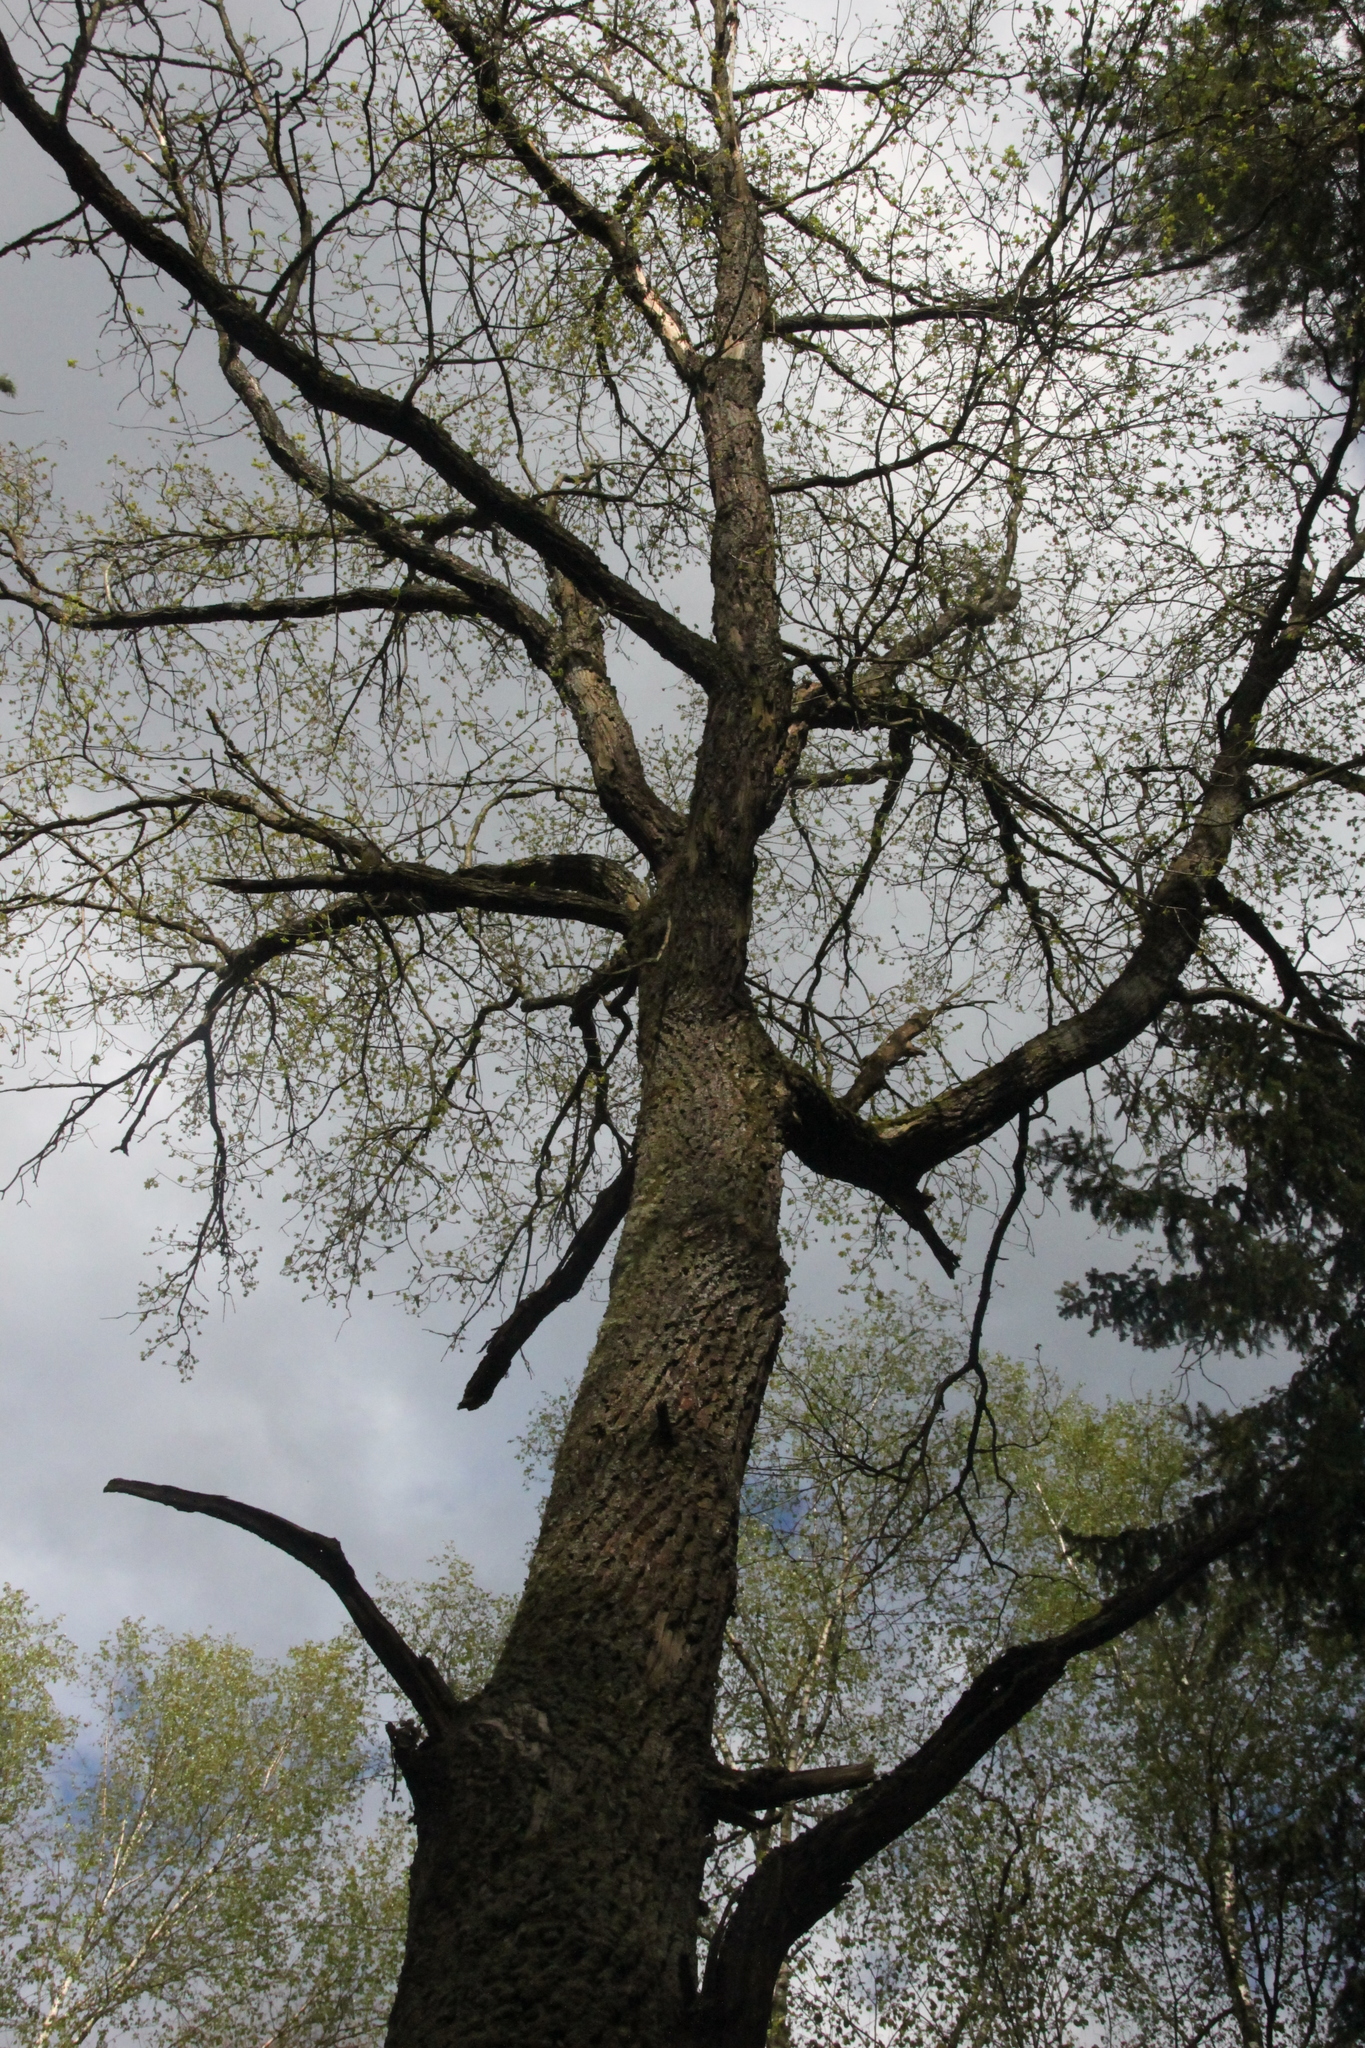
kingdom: Plantae
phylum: Tracheophyta
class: Magnoliopsida
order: Fagales
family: Fagaceae
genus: Quercus
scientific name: Quercus robur
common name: Pedunculate oak
